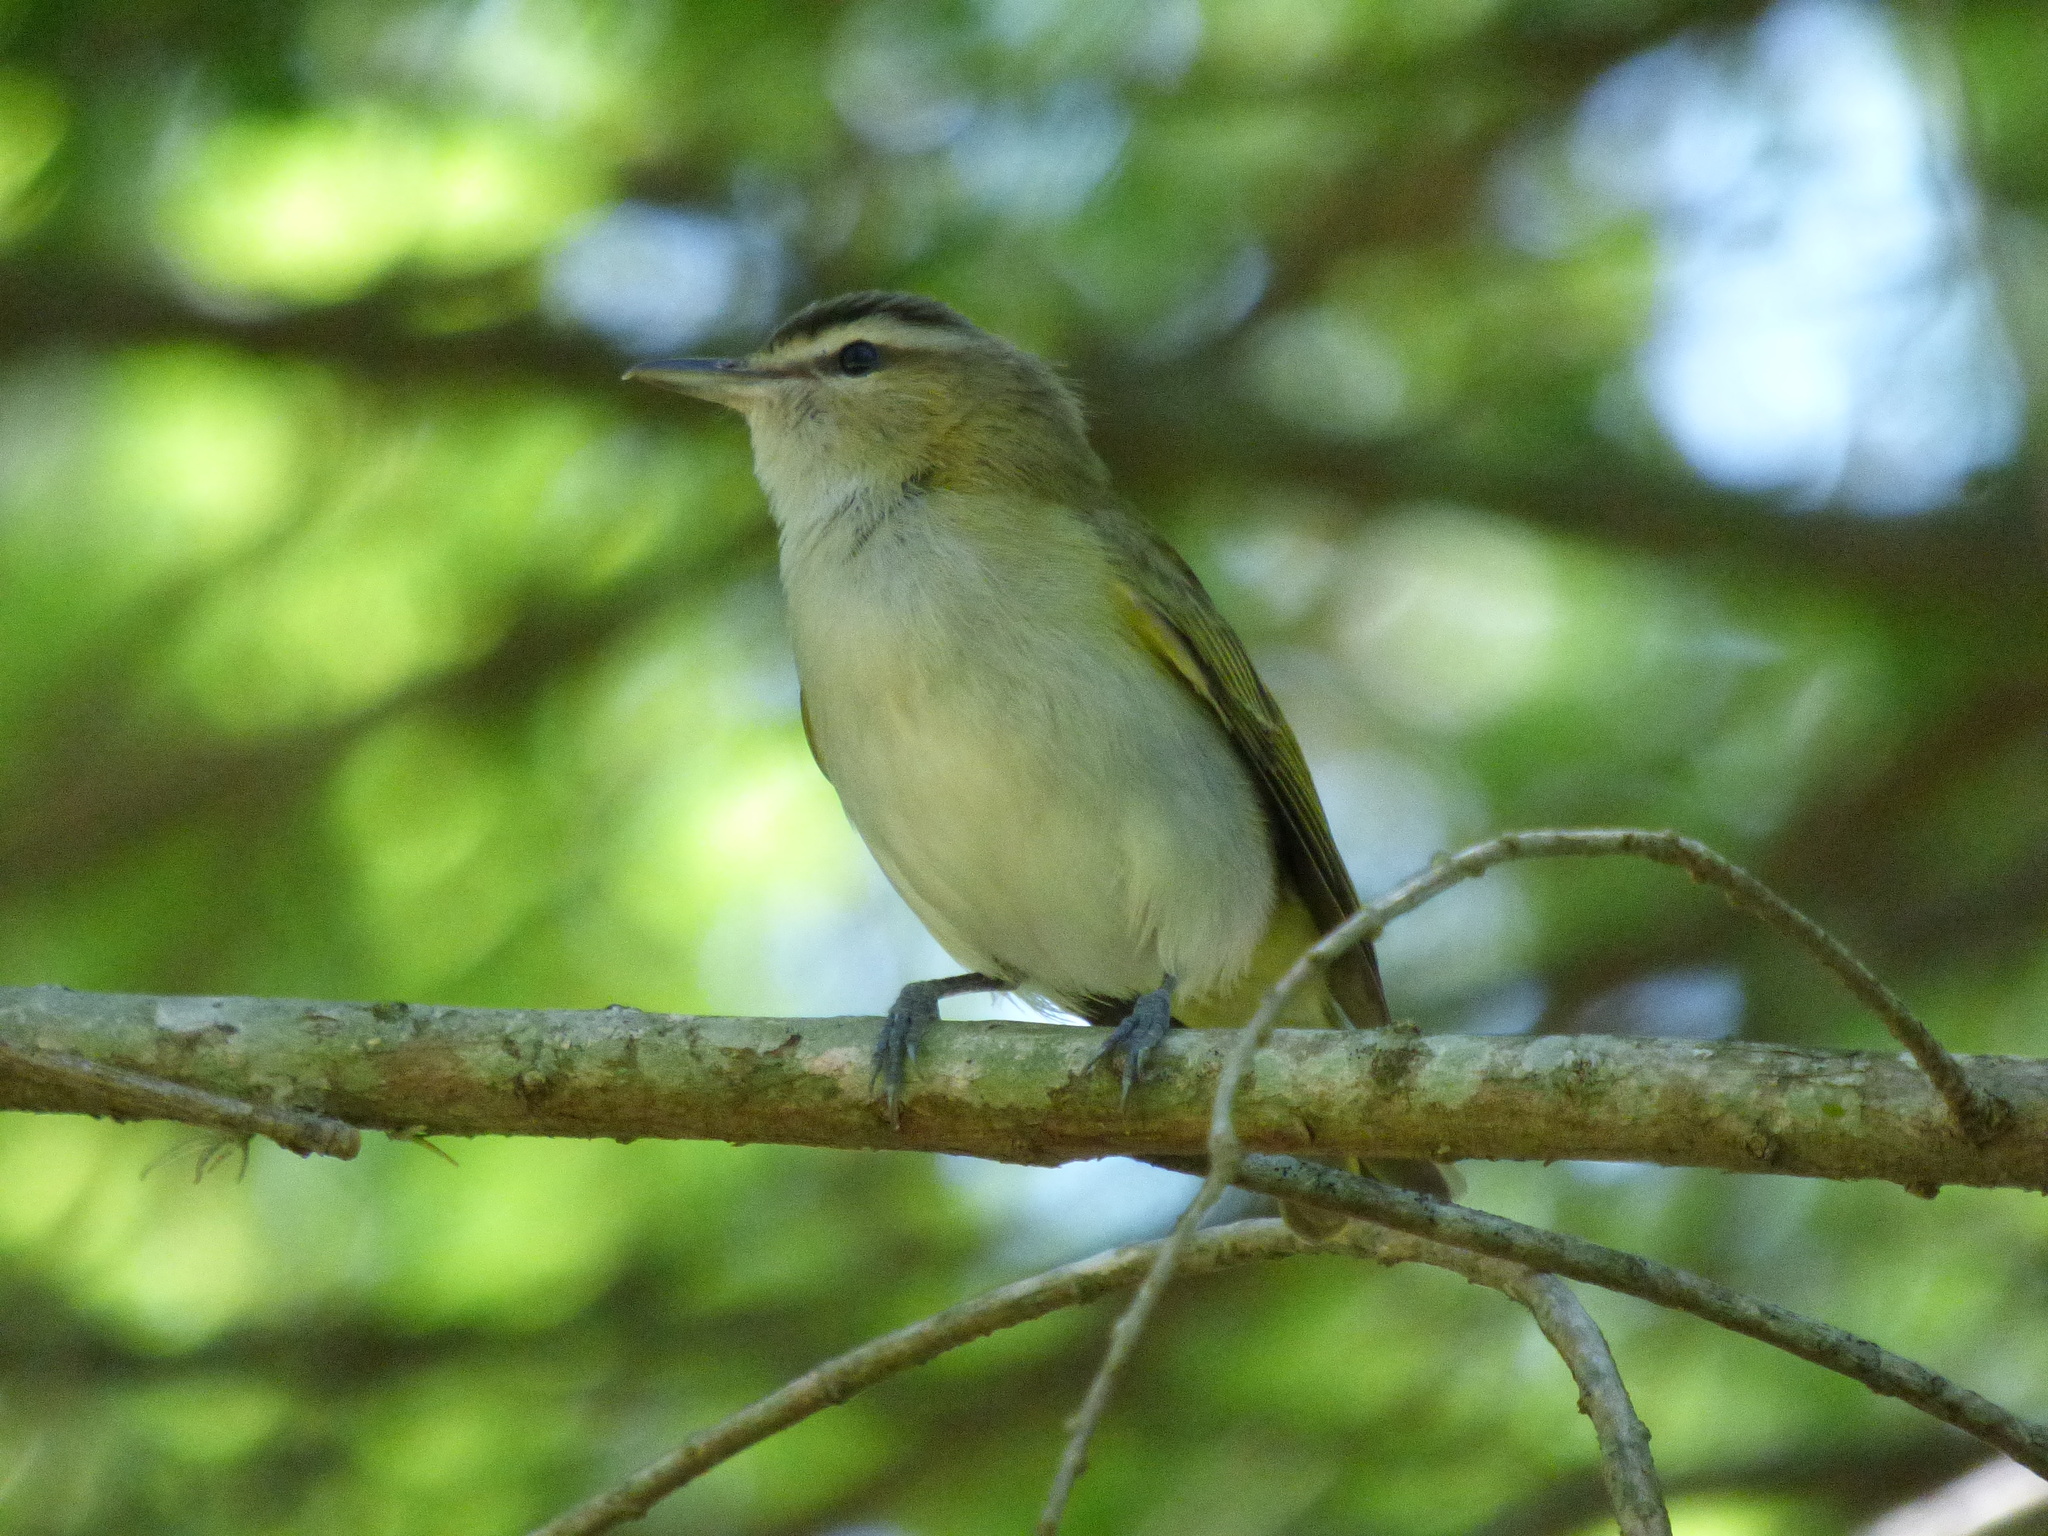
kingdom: Animalia
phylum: Chordata
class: Aves
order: Passeriformes
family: Vireonidae
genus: Vireo
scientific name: Vireo olivaceus
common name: Red-eyed vireo
